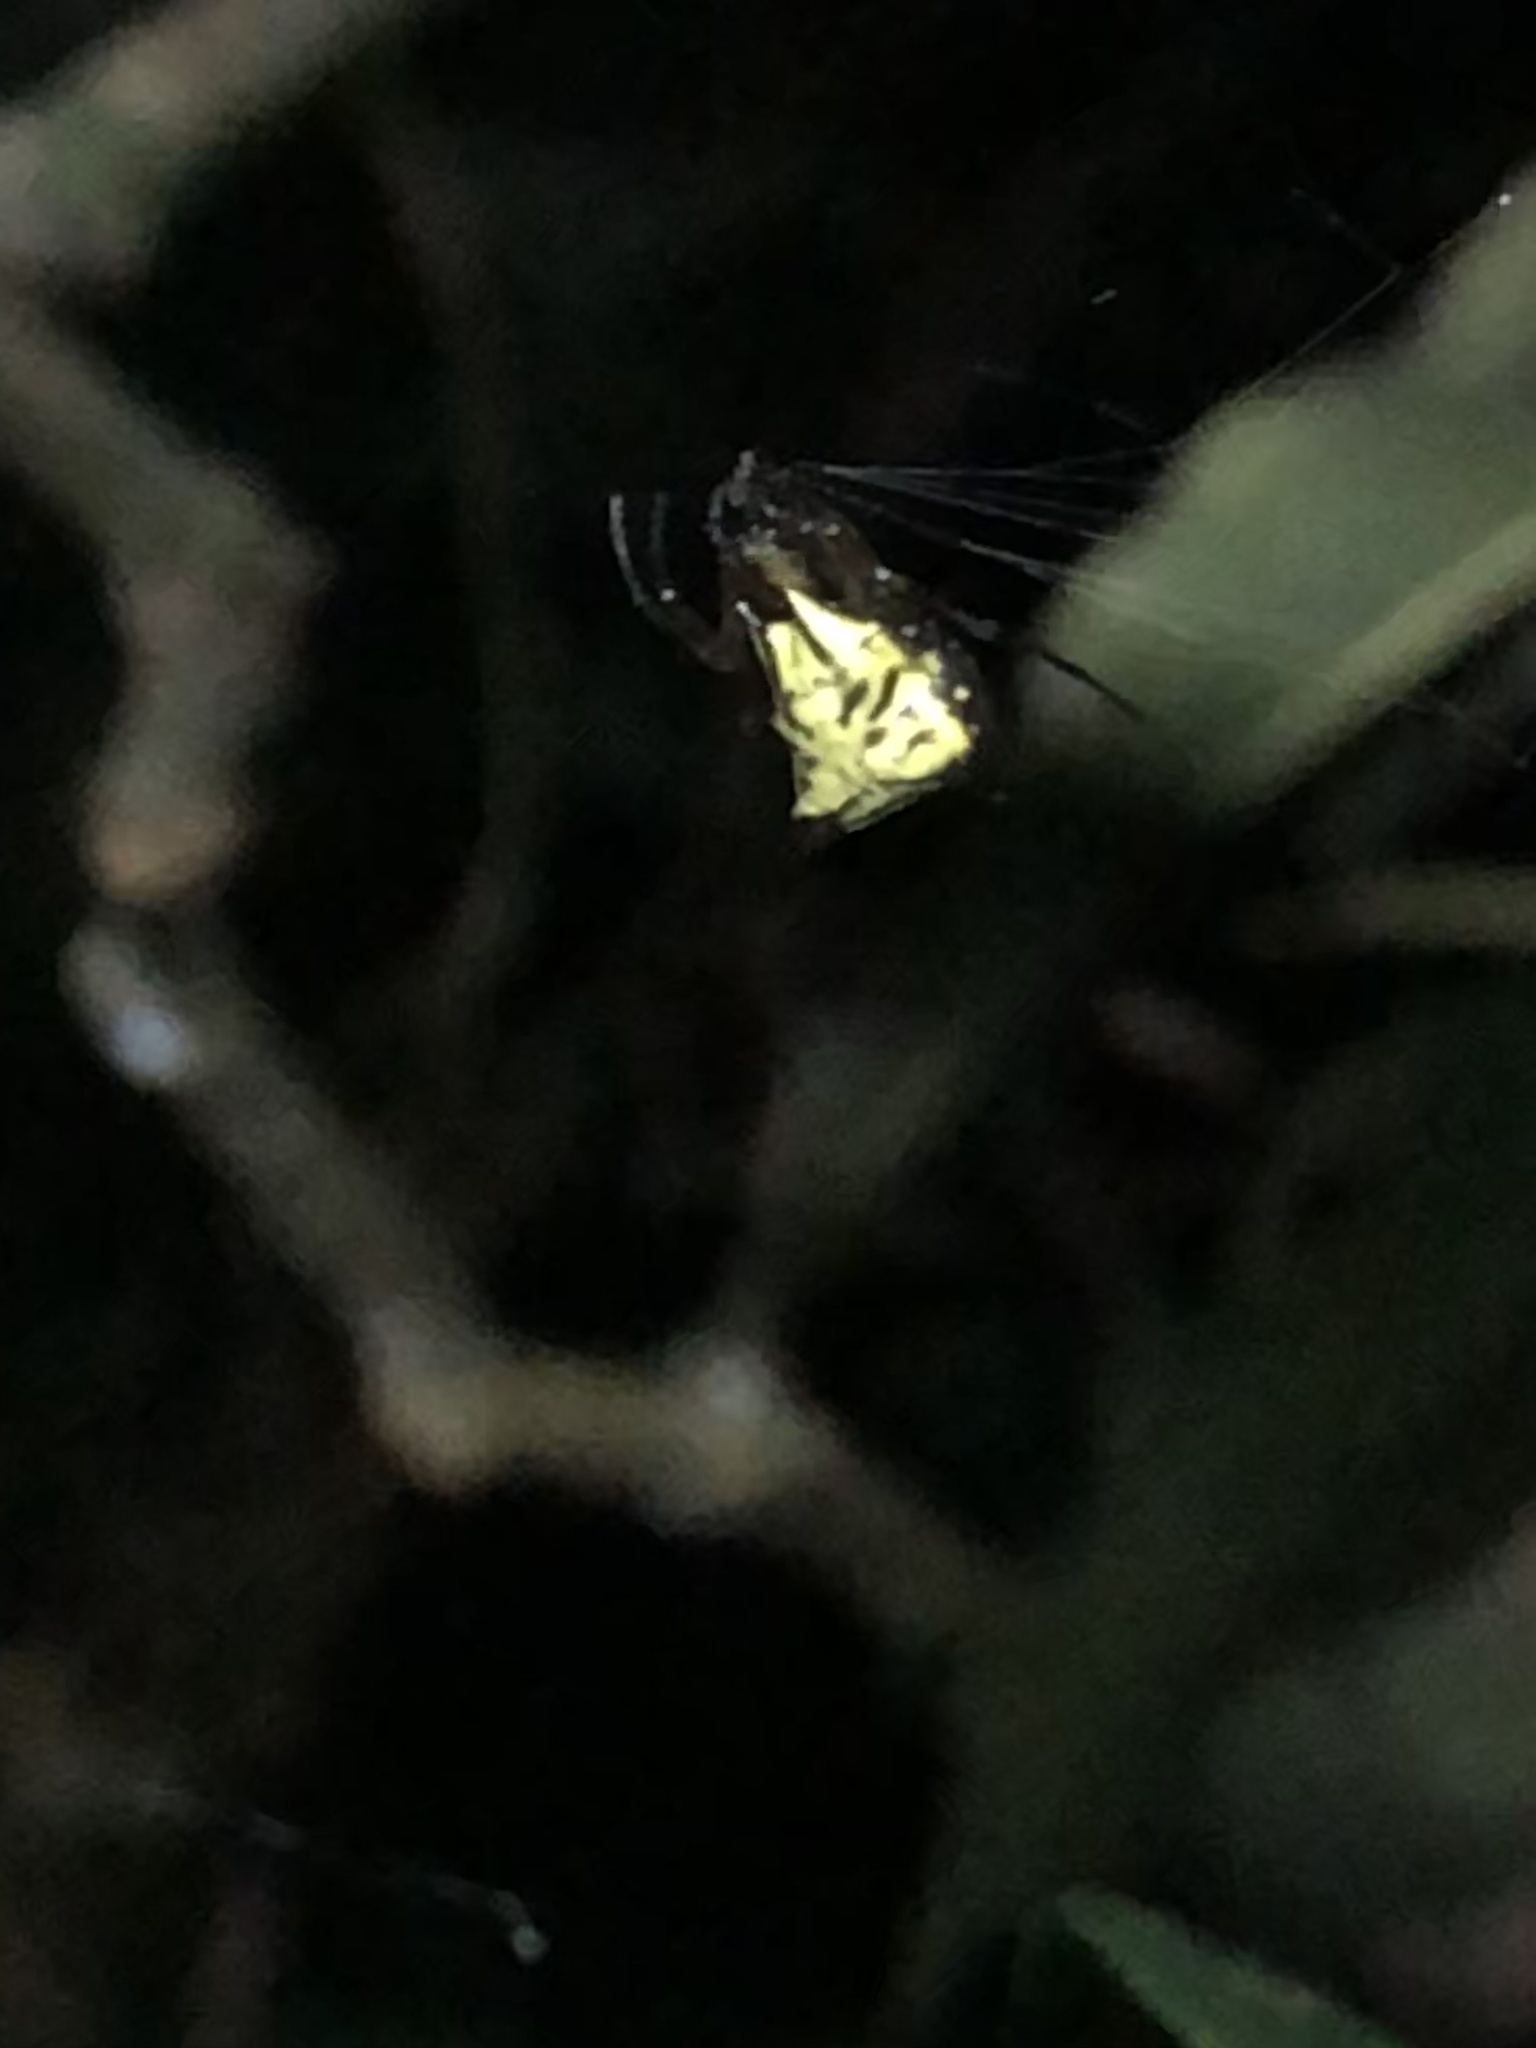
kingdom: Animalia
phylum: Arthropoda
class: Arachnida
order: Araneae
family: Araneidae
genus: Micrathena
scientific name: Micrathena acuta
